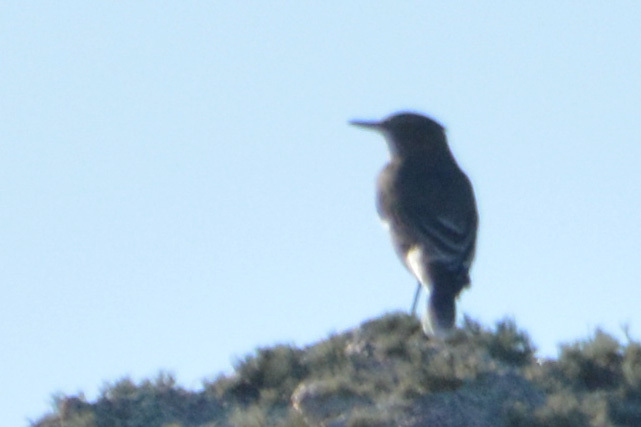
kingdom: Animalia
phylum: Chordata
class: Aves
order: Passeriformes
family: Tyrannidae
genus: Agriornis
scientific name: Agriornis montanus
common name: Black-billed shrike-tyrant
